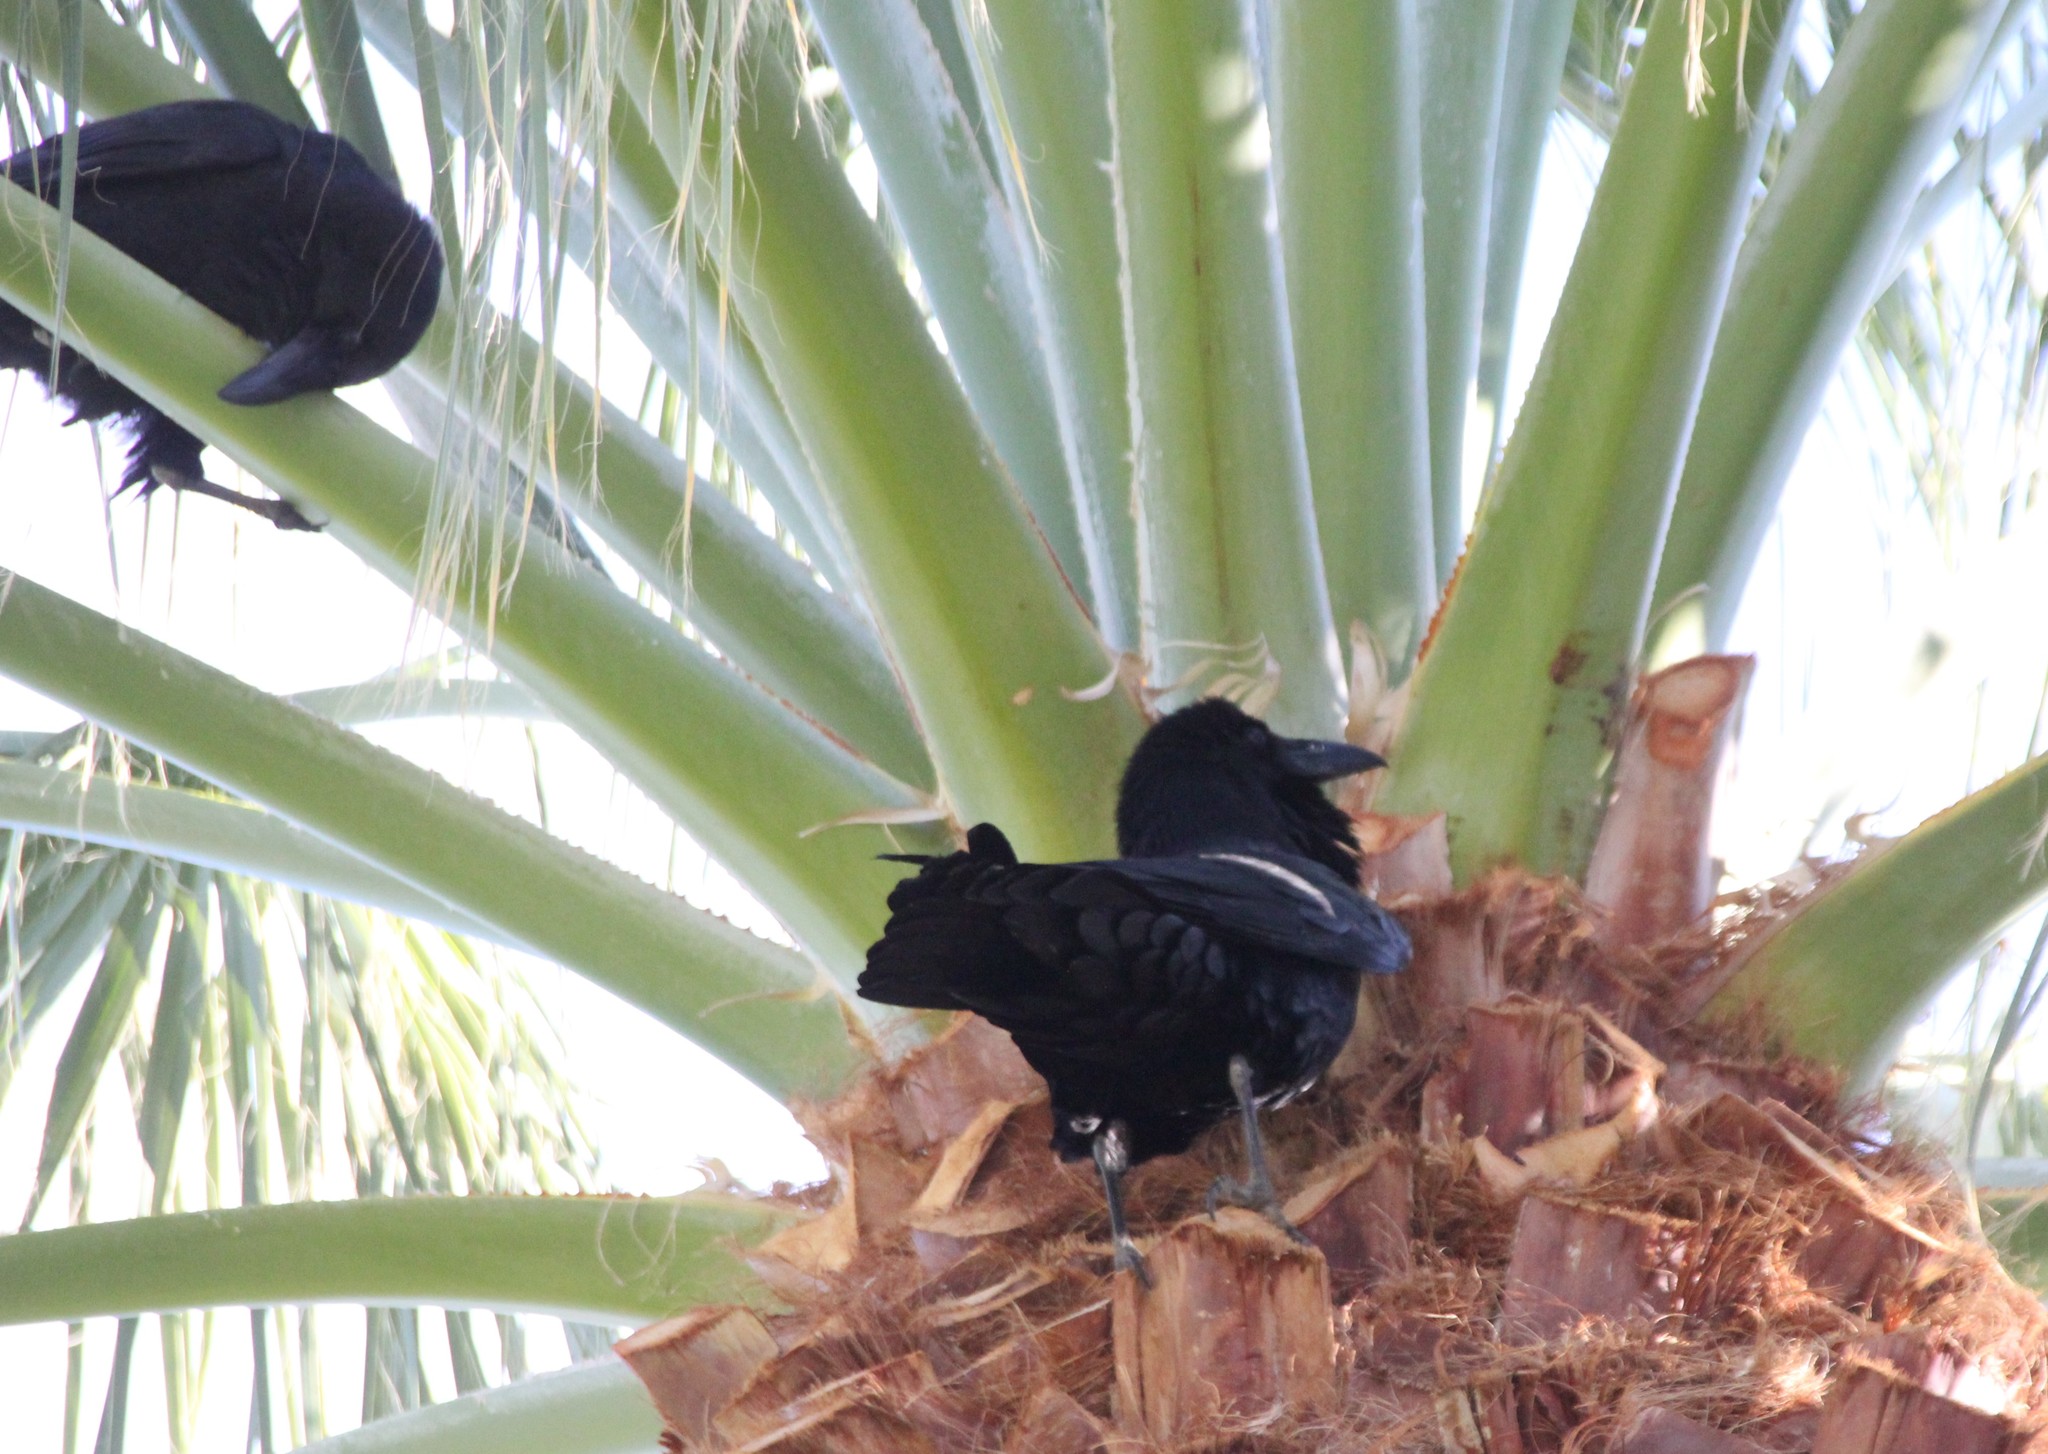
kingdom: Animalia
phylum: Chordata
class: Aves
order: Passeriformes
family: Corvidae
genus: Corvus
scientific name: Corvus corax
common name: Common raven
